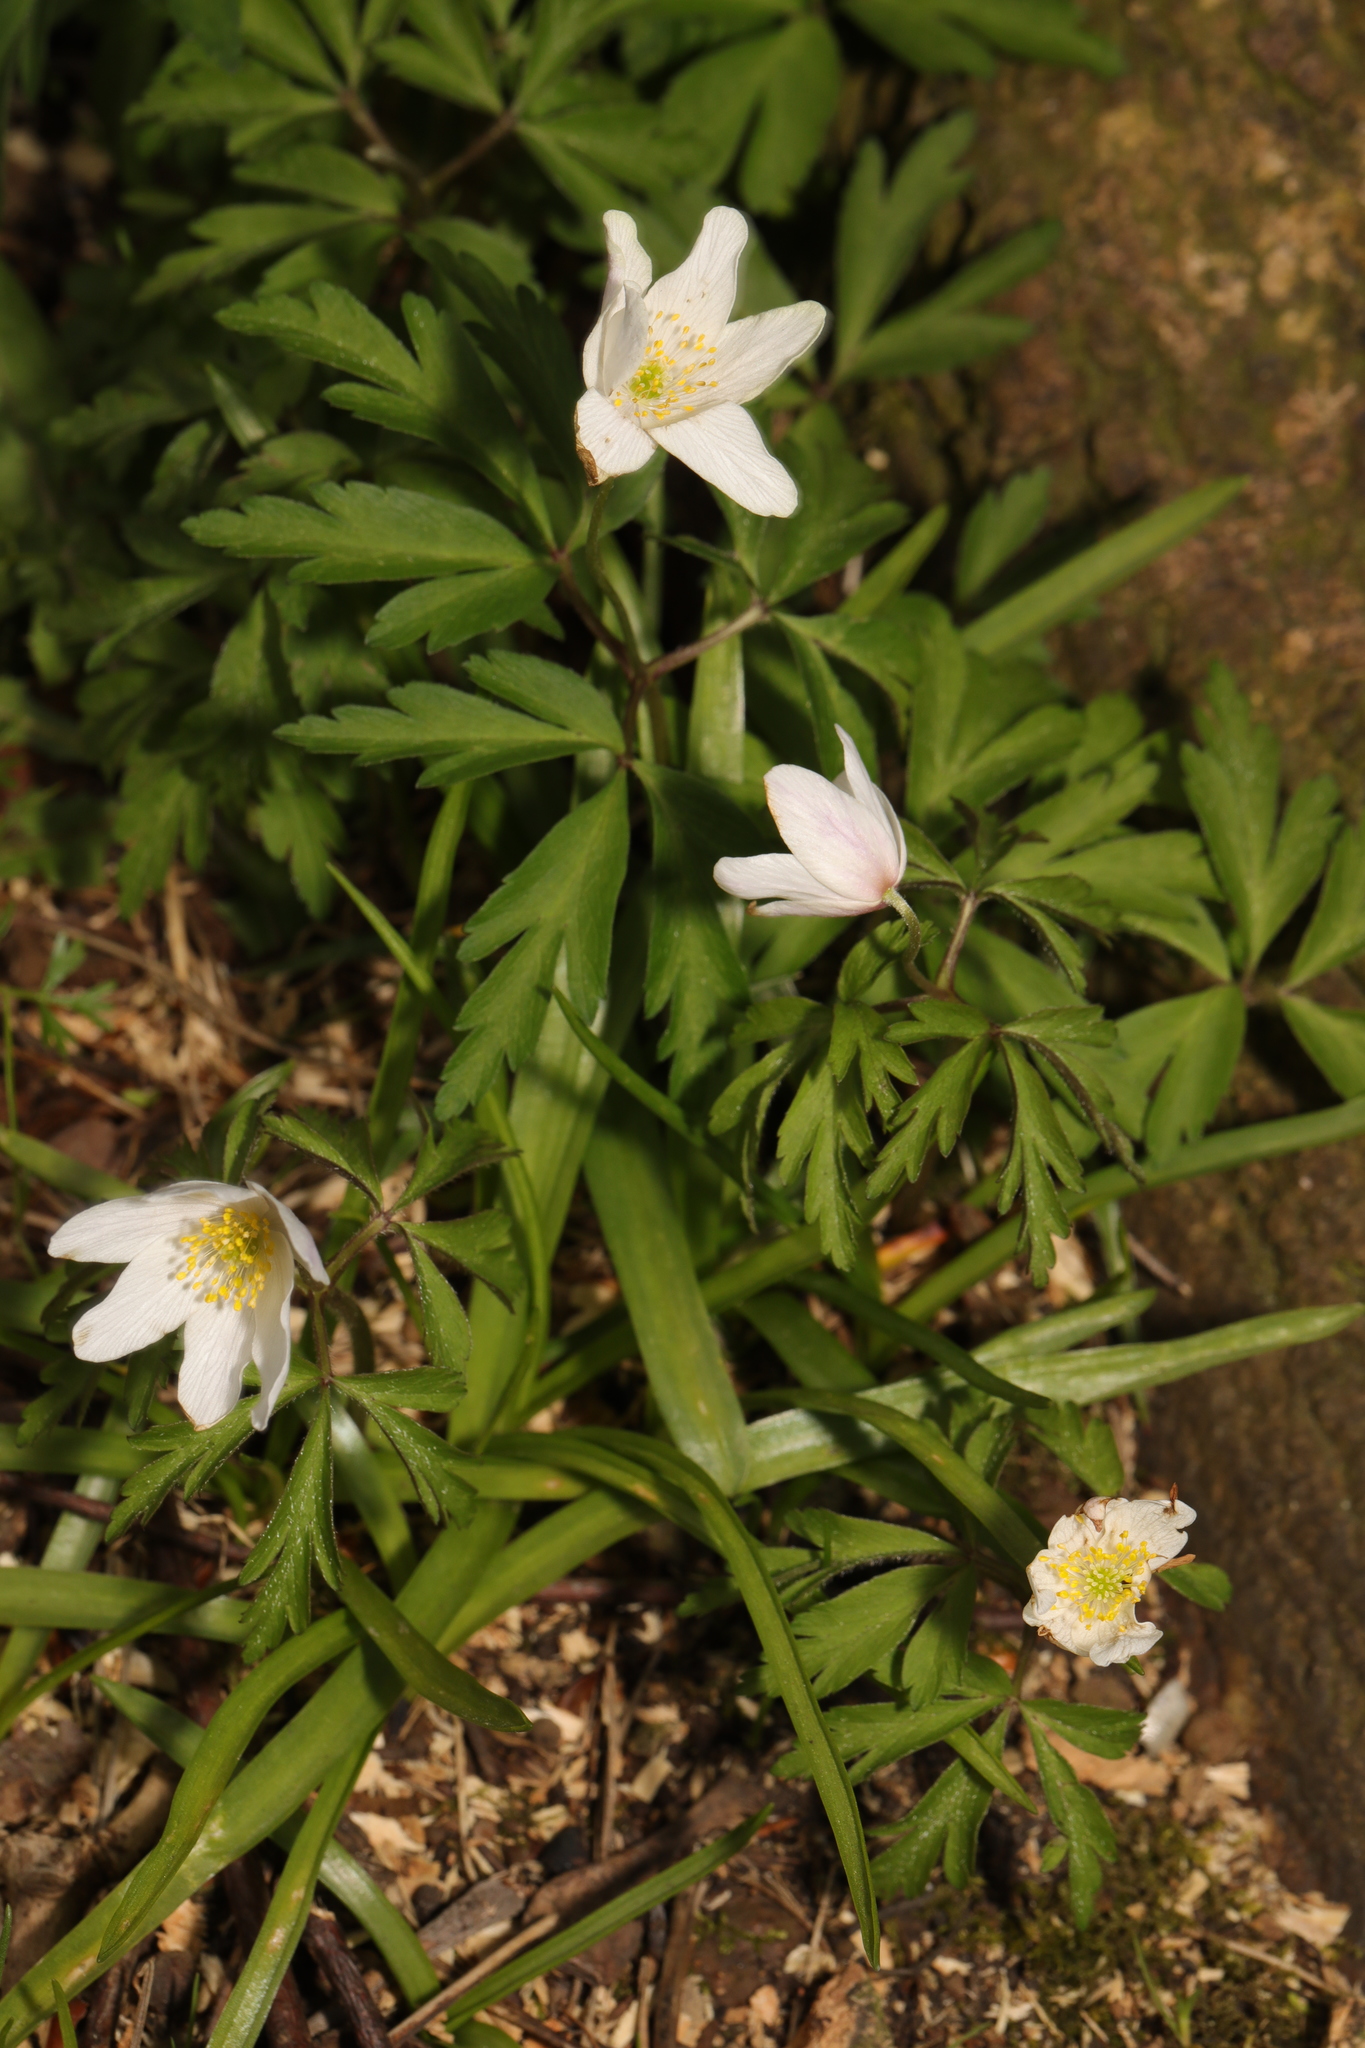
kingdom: Plantae
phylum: Tracheophyta
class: Magnoliopsida
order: Ranunculales
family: Ranunculaceae
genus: Anemone
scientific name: Anemone nemorosa
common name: Wood anemone
